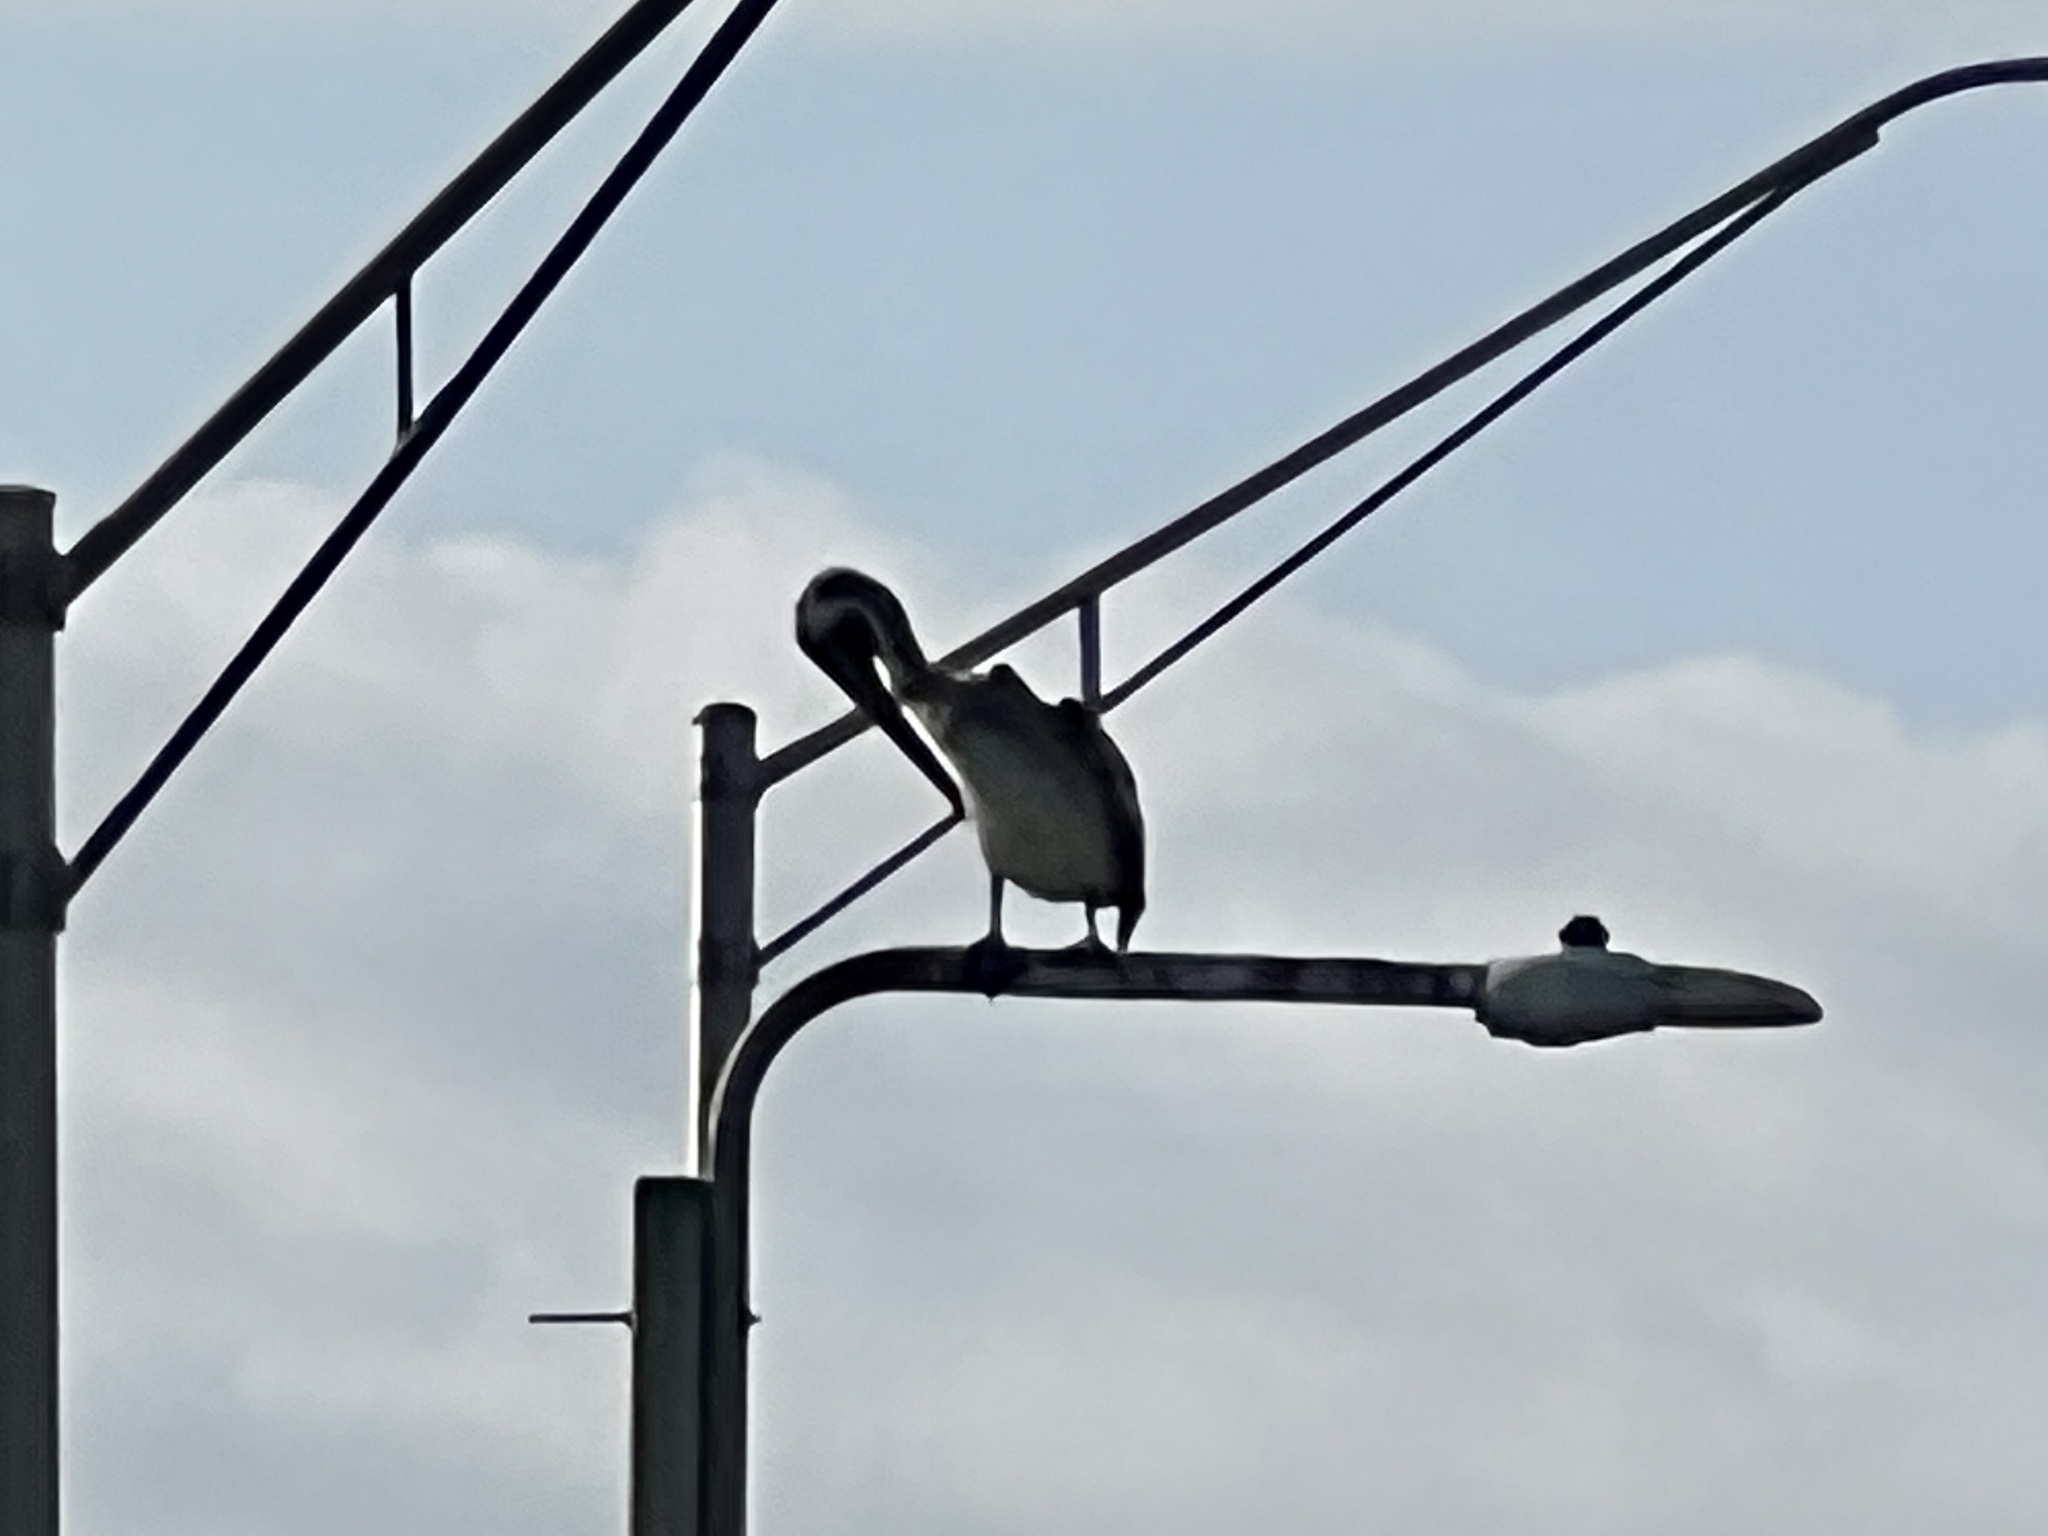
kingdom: Animalia
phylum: Chordata
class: Aves
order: Pelecaniformes
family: Pelecanidae
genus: Pelecanus
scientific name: Pelecanus occidentalis
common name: Brown pelican
